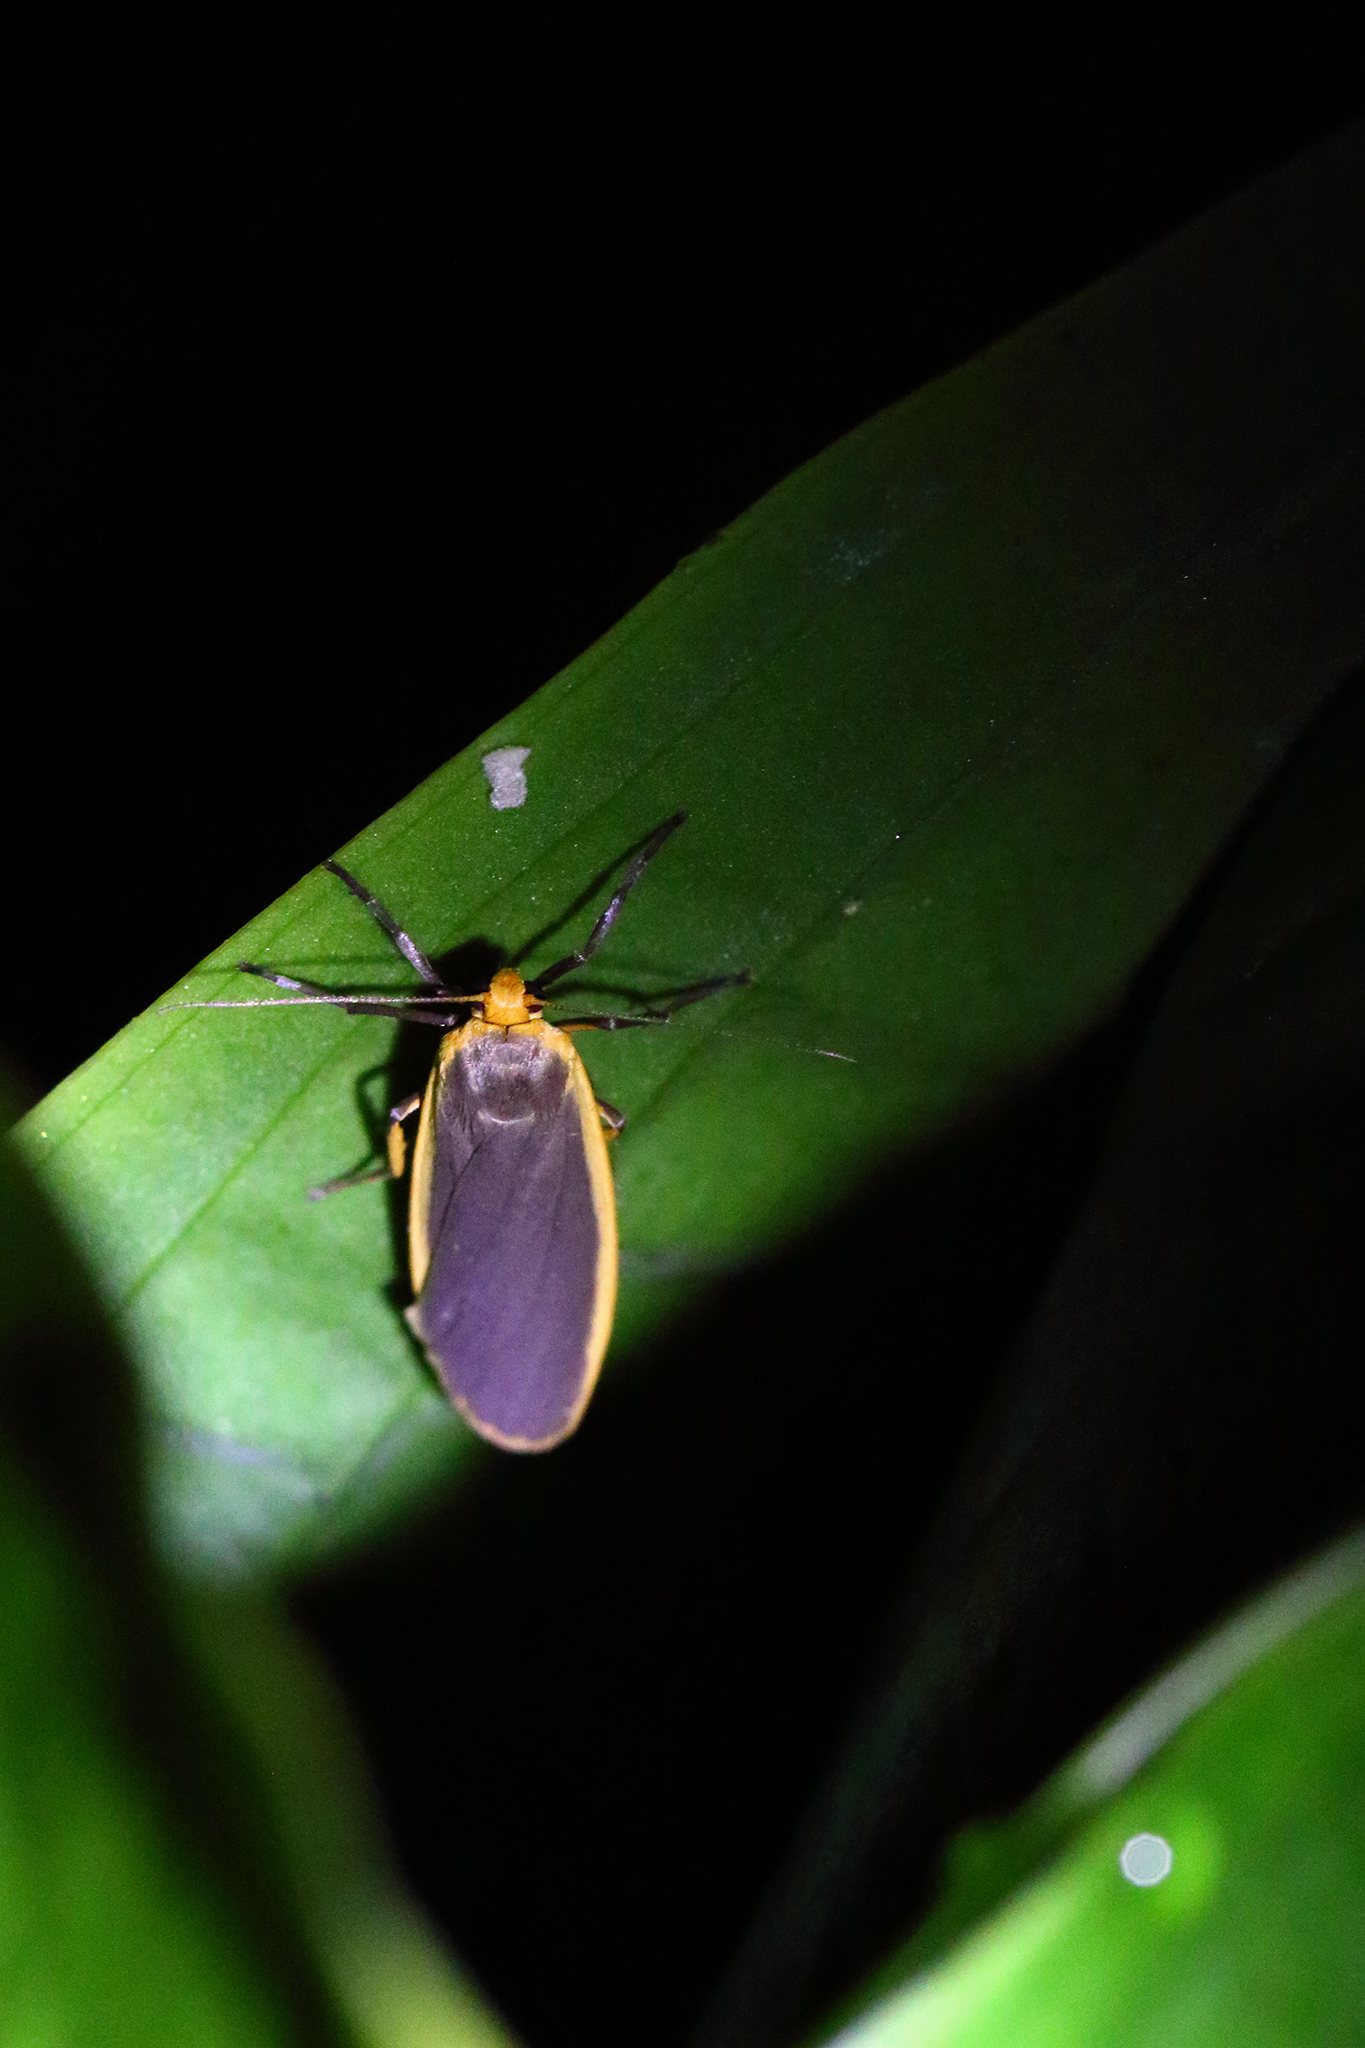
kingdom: Animalia
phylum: Arthropoda
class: Insecta
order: Lepidoptera
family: Erebidae
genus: Nyea
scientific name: Nyea lurideola
